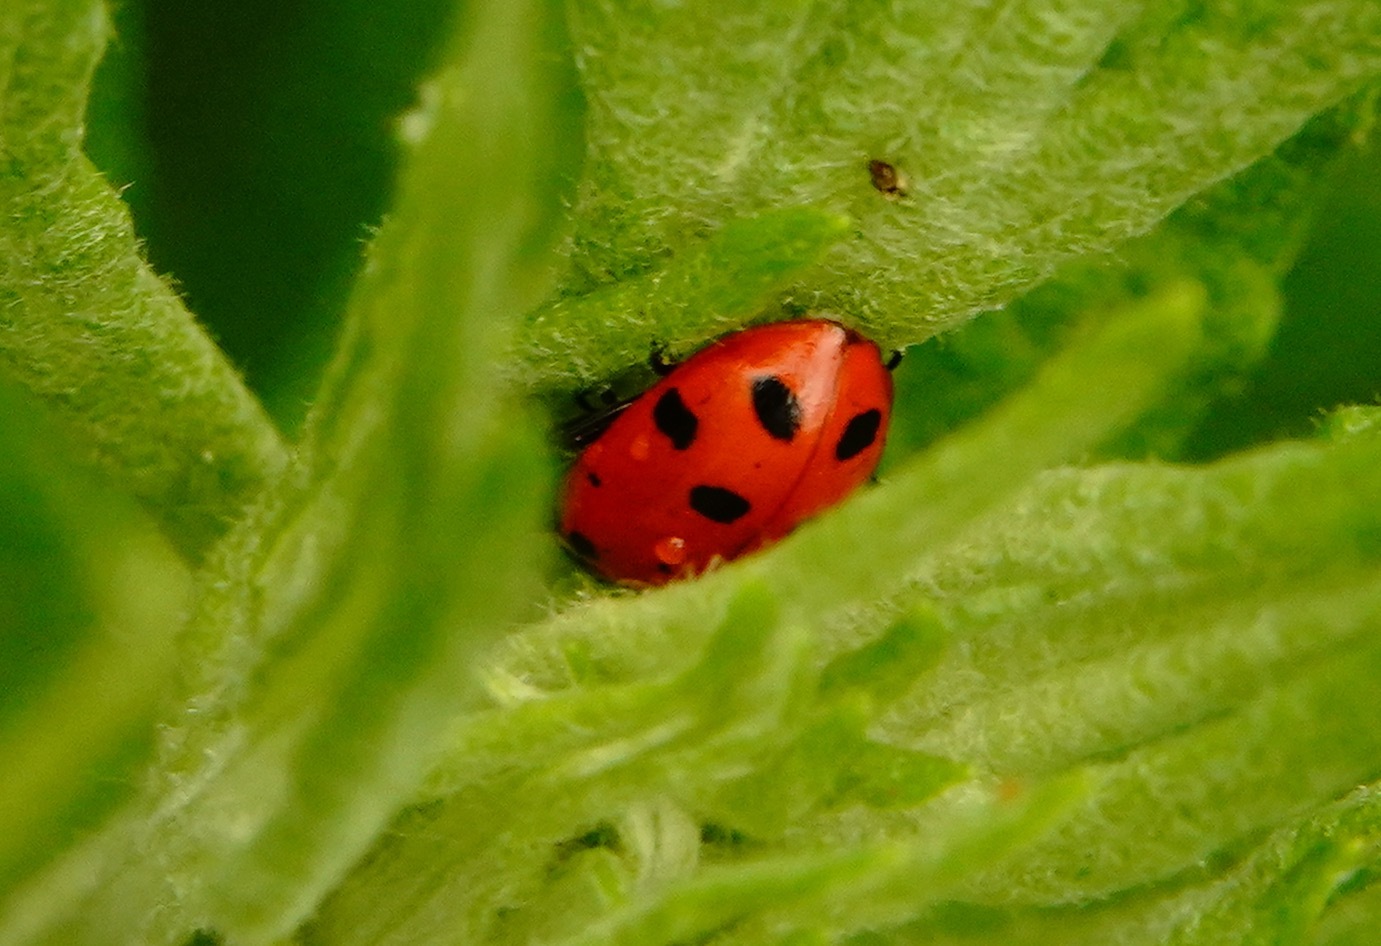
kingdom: Animalia
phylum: Arthropoda
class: Insecta
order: Coleoptera
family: Coccinellidae
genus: Hippodamia
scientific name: Hippodamia convergens
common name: Convergent lady beetle
